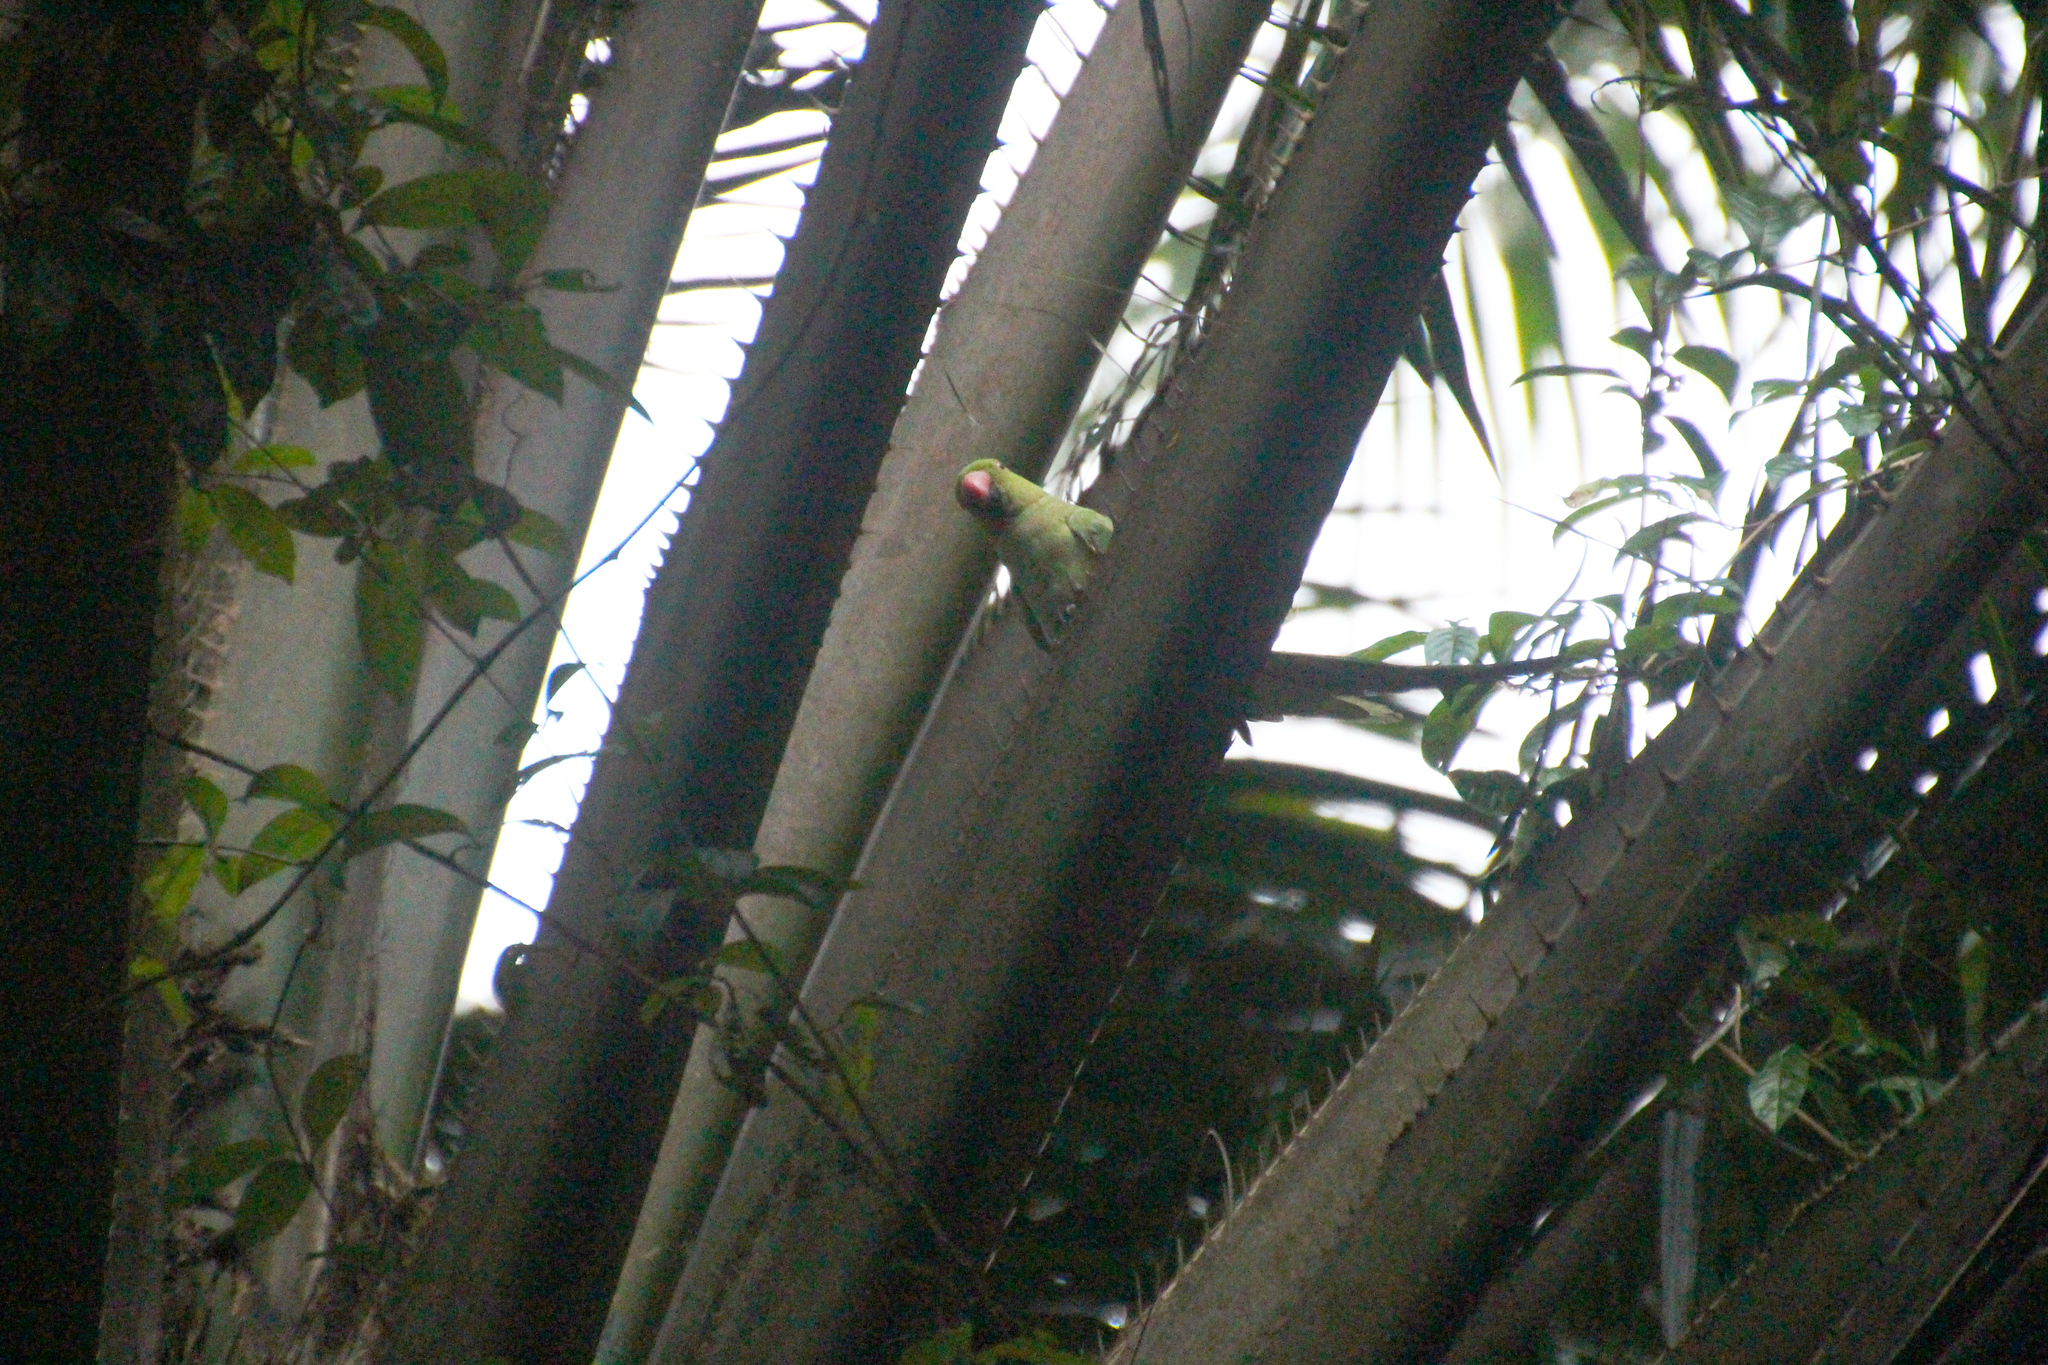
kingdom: Animalia
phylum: Chordata
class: Aves
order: Psittaciformes
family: Psittacidae
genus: Psittacula
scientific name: Psittacula krameri
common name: Rose-ringed parakeet
